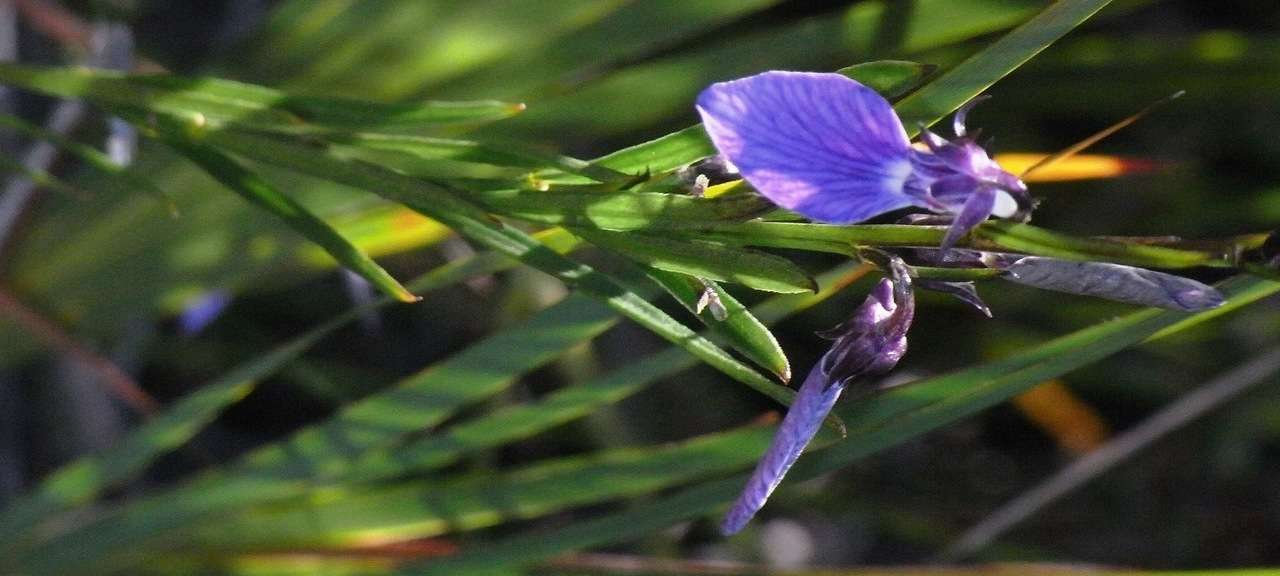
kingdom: Plantae
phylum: Tracheophyta
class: Magnoliopsida
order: Malpighiales
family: Violaceae
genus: Pigea
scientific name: Pigea vernonii
